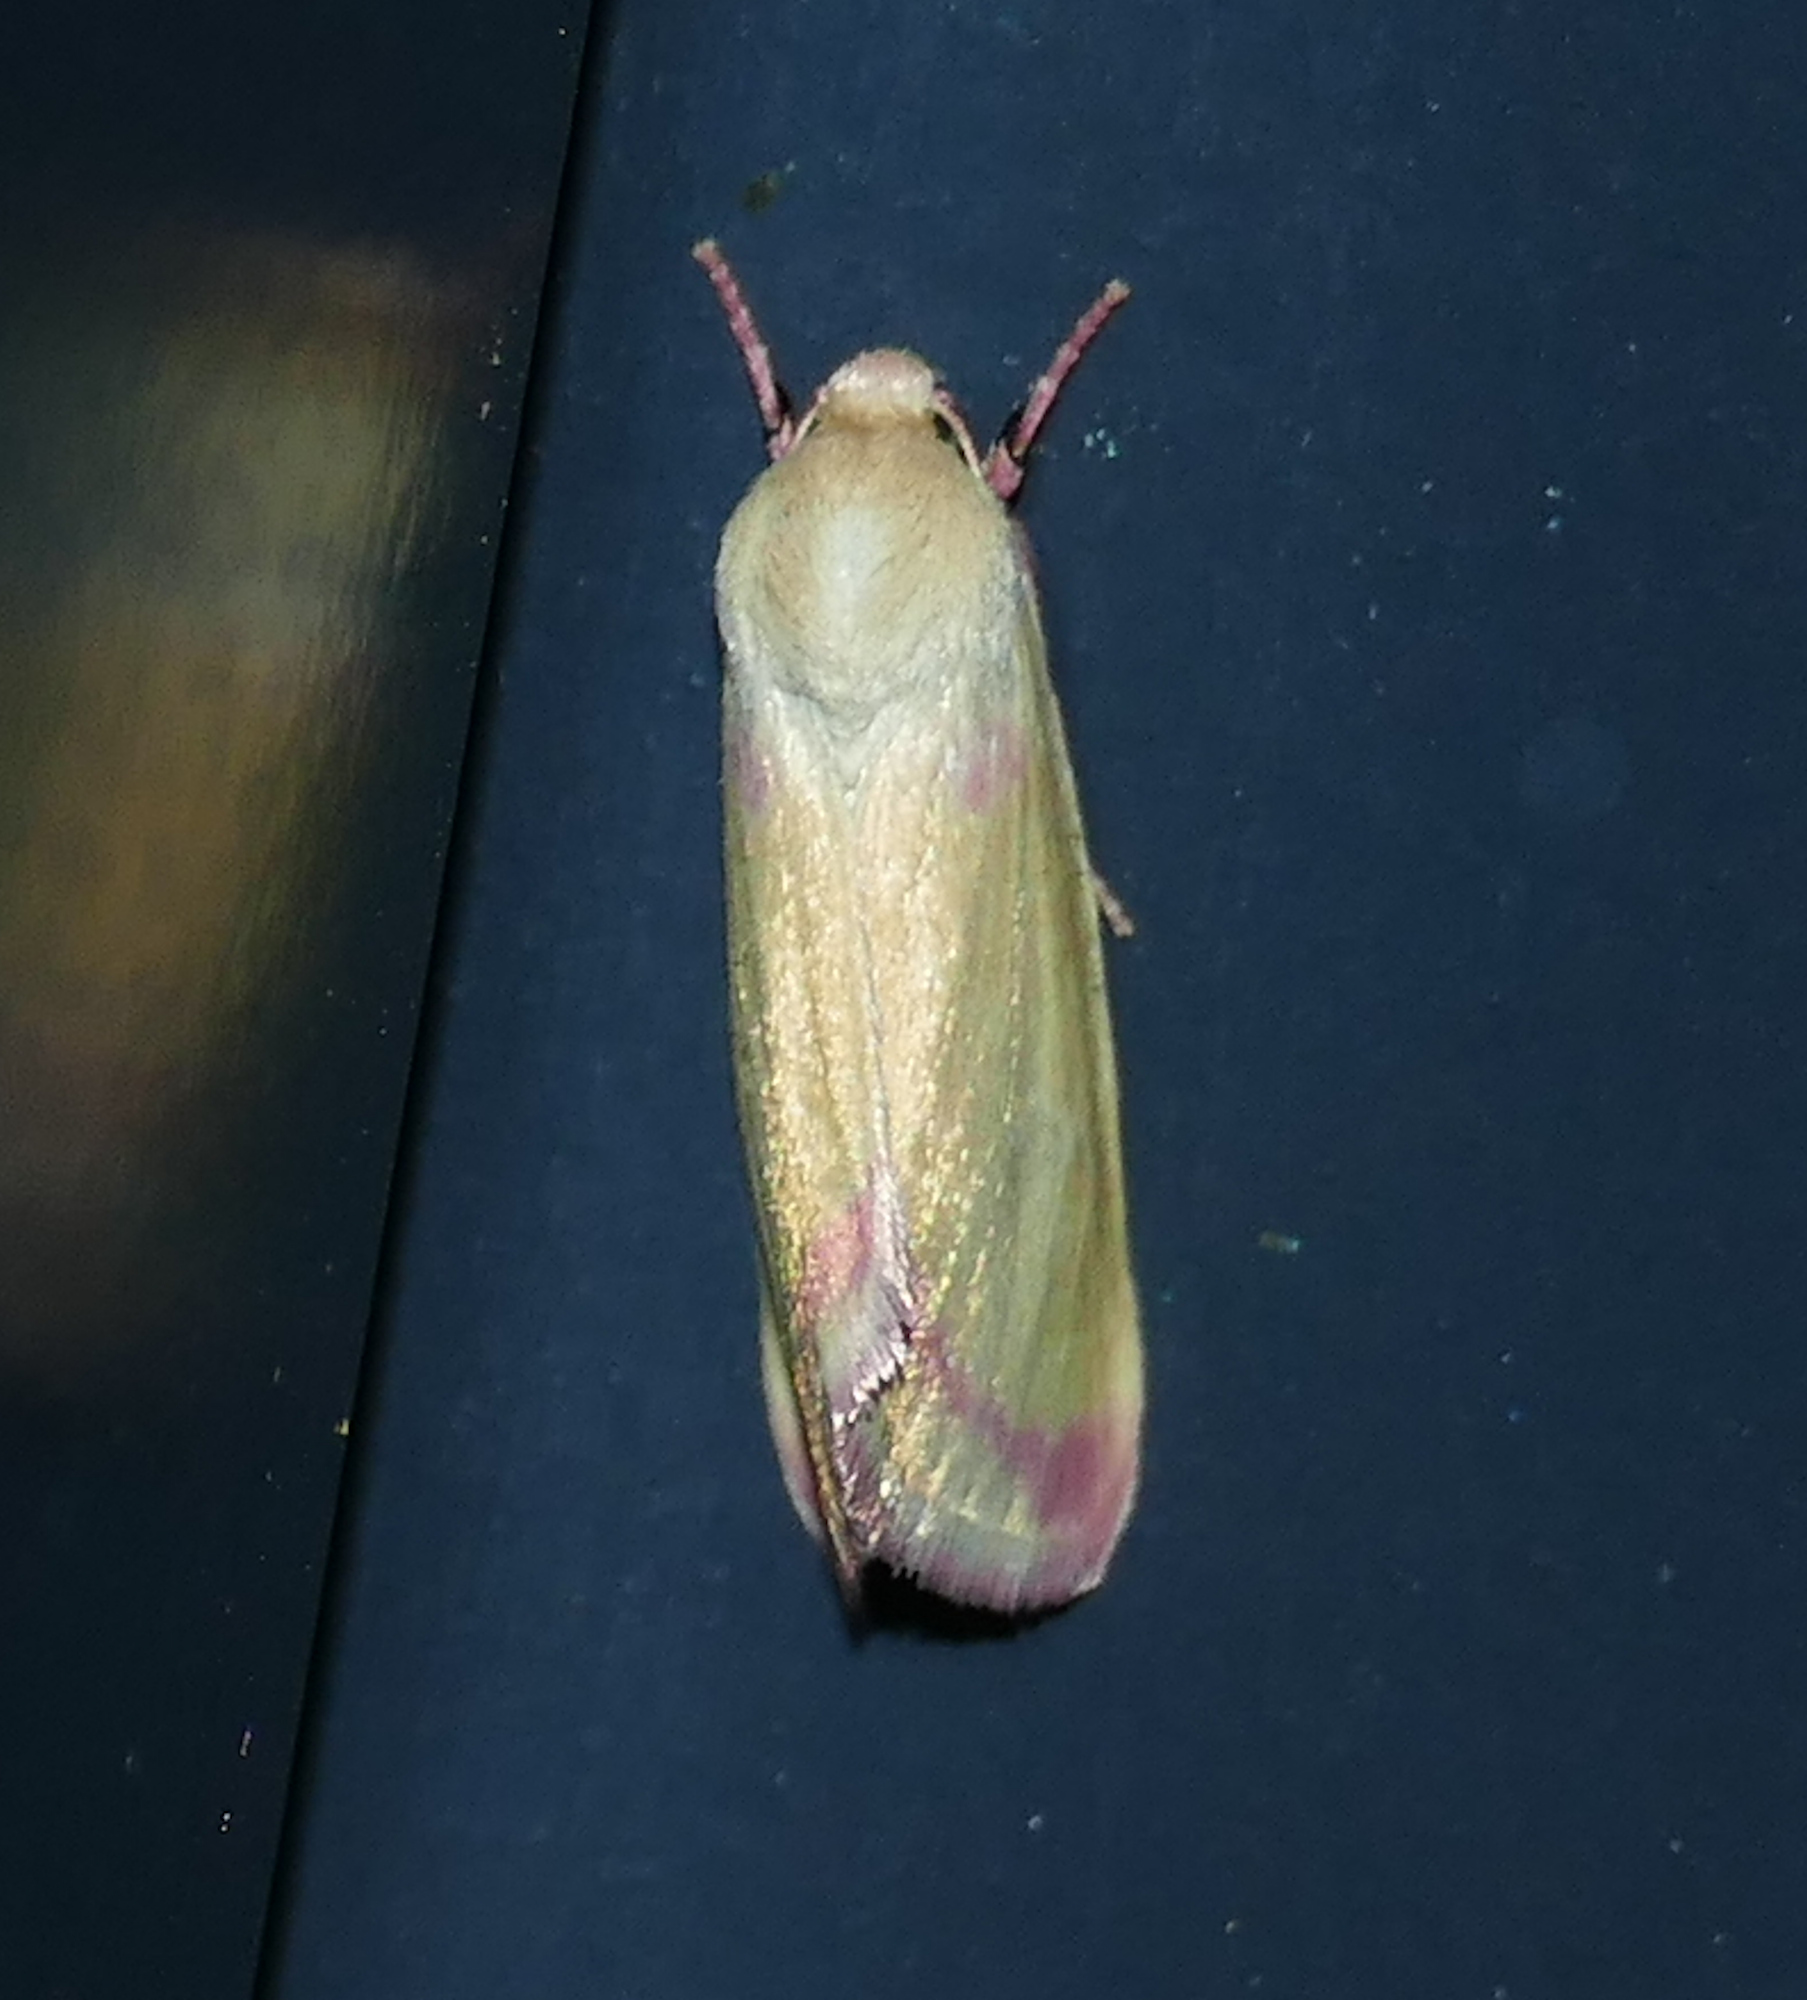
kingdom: Animalia
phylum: Arthropoda
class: Insecta
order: Lepidoptera
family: Noctuidae
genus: Heliocheilus
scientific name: Heliocheilus toralis
